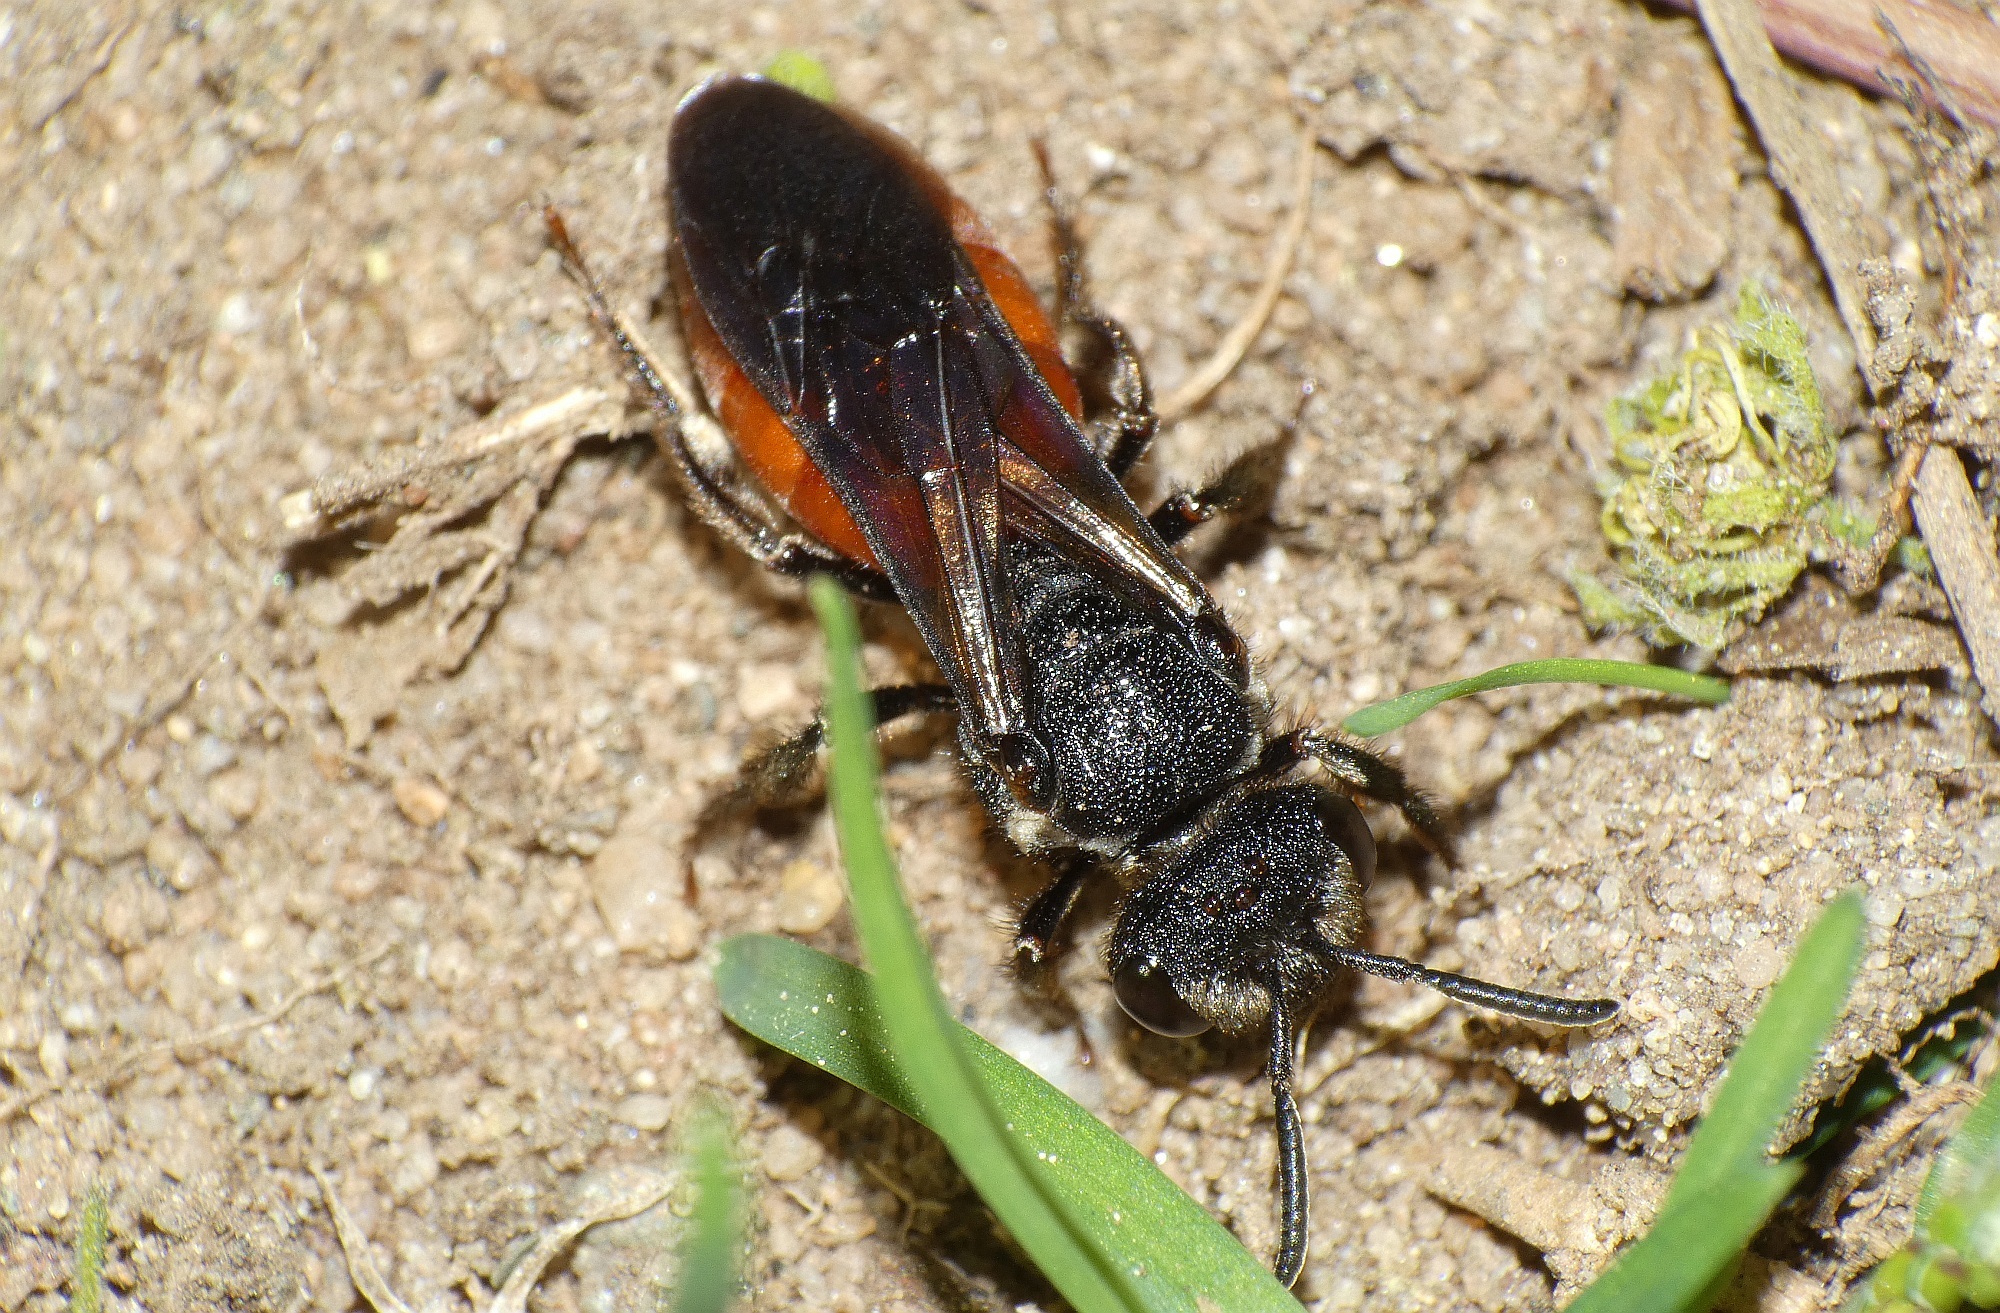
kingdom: Animalia
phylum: Arthropoda
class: Insecta
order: Hymenoptera
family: Halictidae
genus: Sphecodes
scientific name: Sphecodes albilabris
